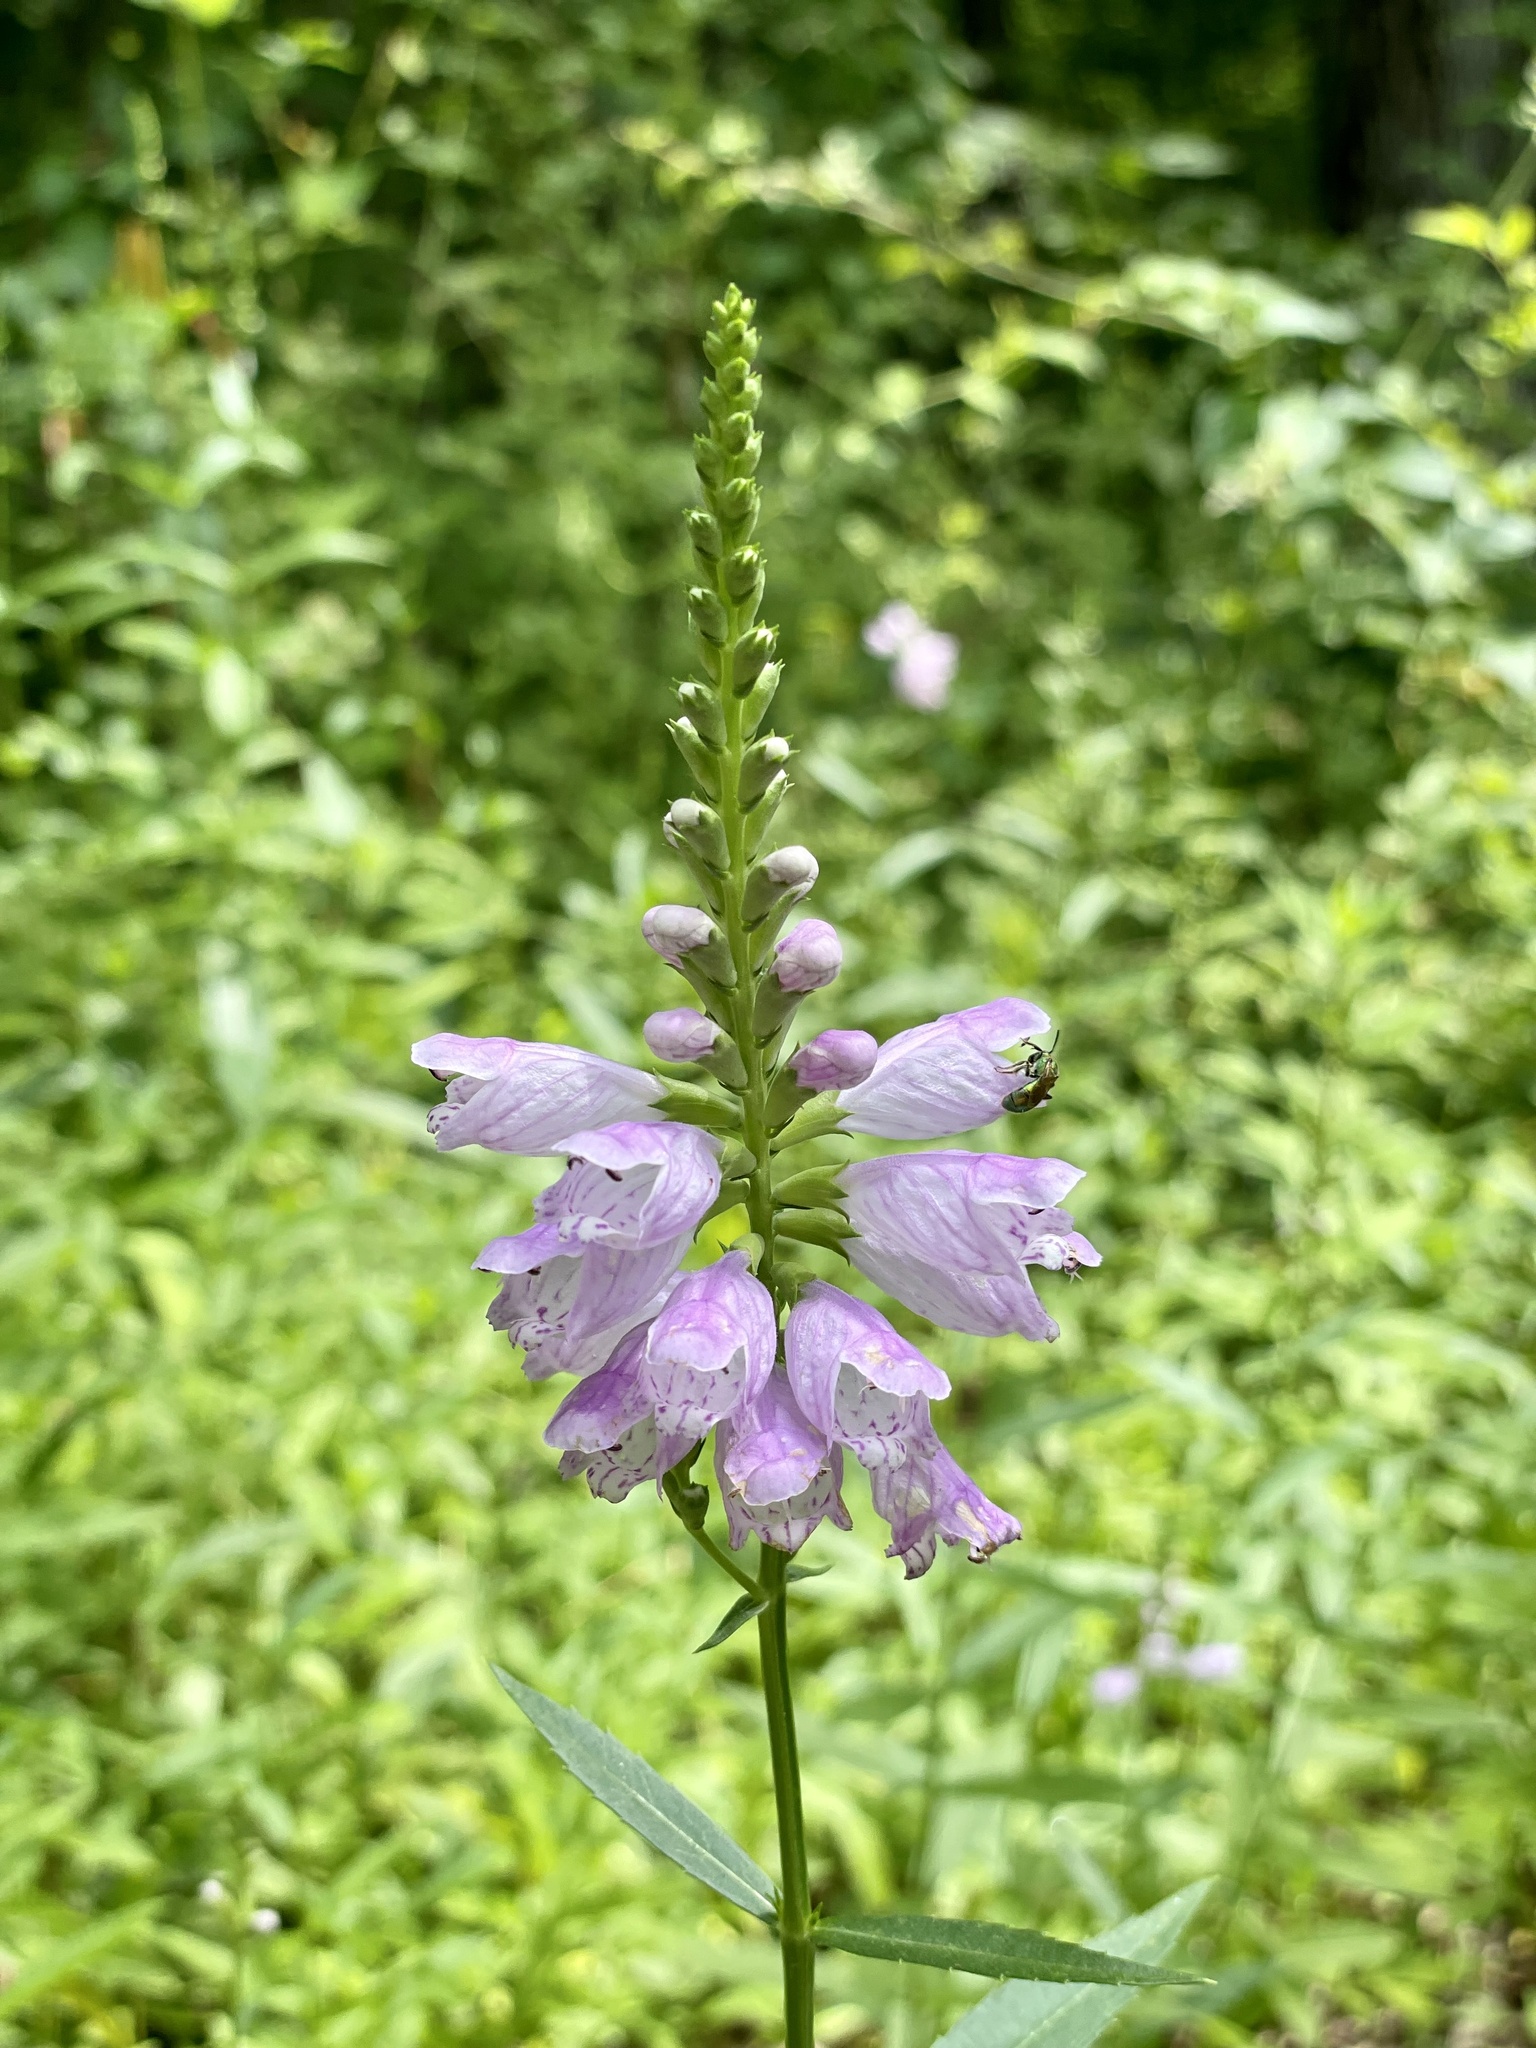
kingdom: Plantae
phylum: Tracheophyta
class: Magnoliopsida
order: Lamiales
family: Lamiaceae
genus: Physostegia
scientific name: Physostegia virginiana
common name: Obedient-plant
